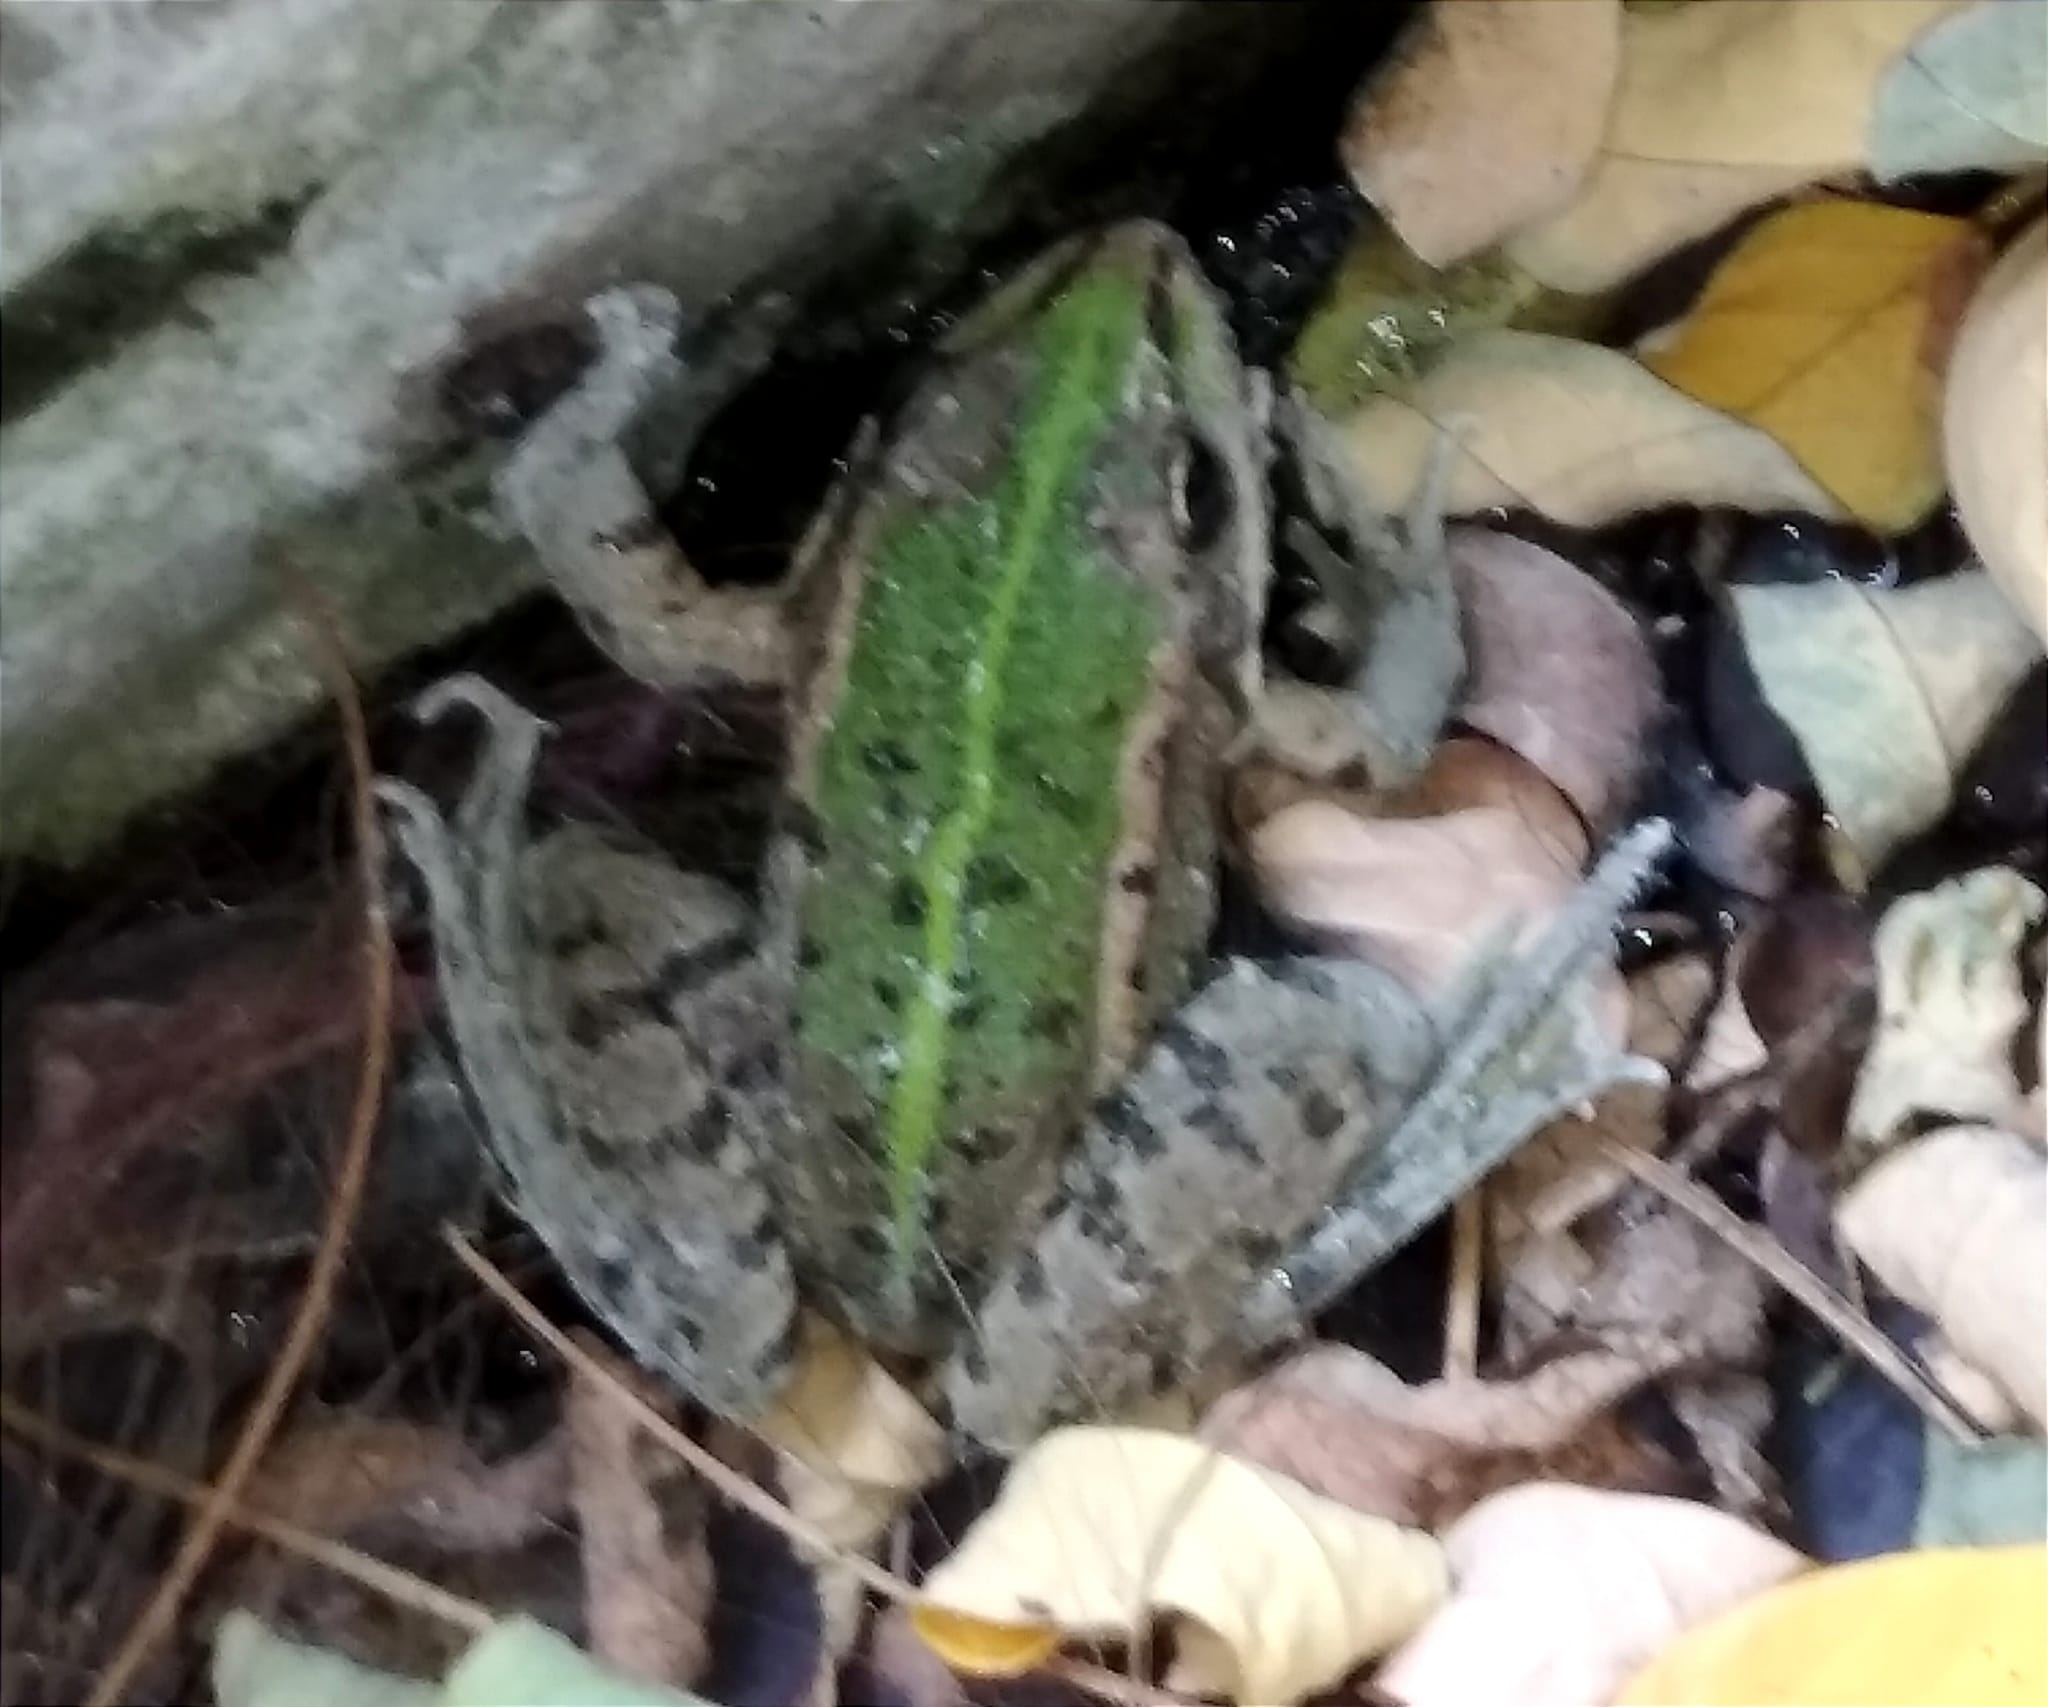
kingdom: Animalia
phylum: Chordata
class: Amphibia
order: Anura
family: Ranidae
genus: Pelophylax
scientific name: Pelophylax ridibundus
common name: Marsh frog
